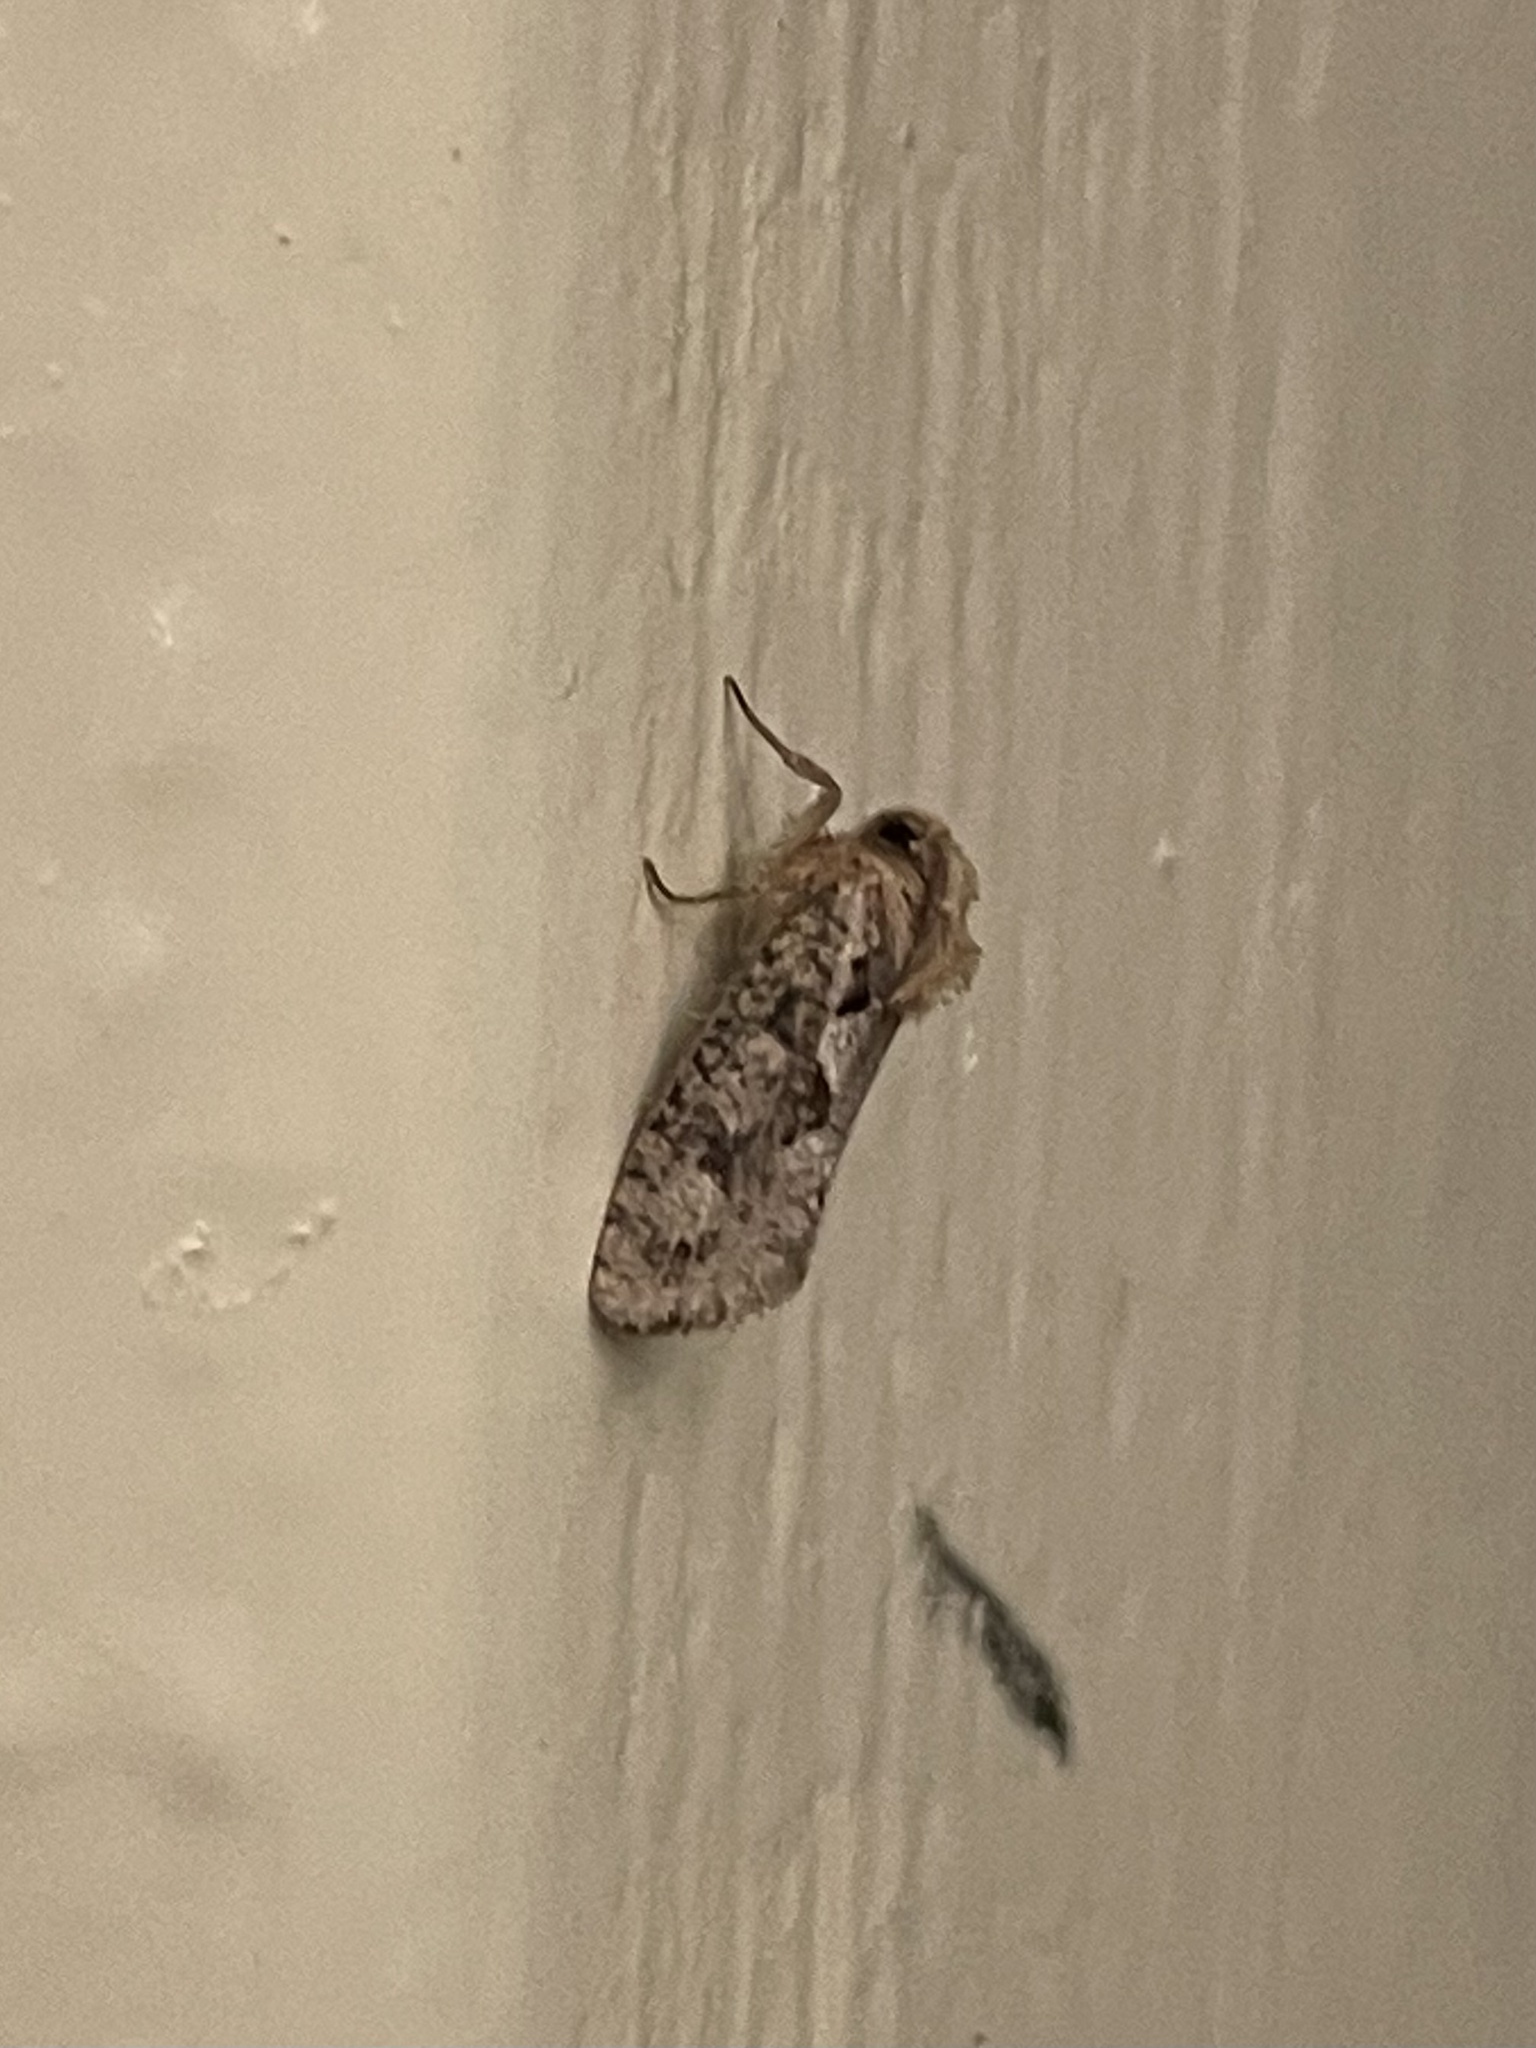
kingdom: Animalia
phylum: Arthropoda
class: Insecta
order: Lepidoptera
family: Tineidae
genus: Acrolophus
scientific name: Acrolophus walsinghami
